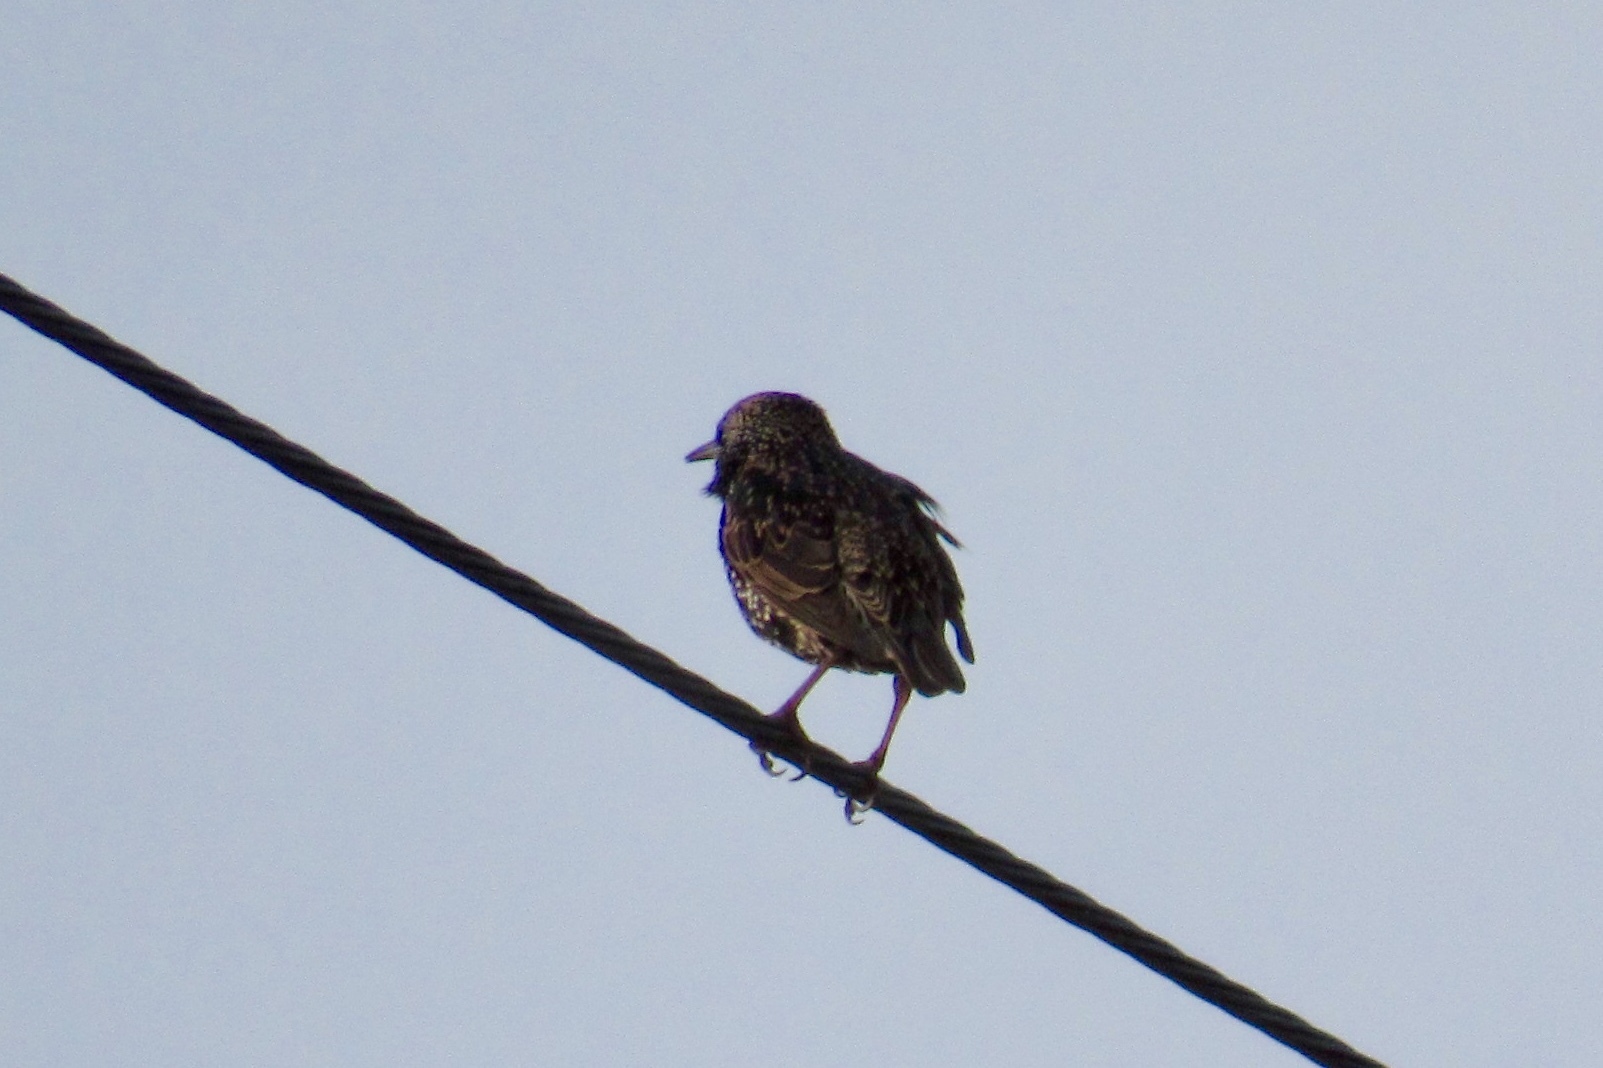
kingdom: Animalia
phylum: Chordata
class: Aves
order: Passeriformes
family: Sturnidae
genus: Sturnus
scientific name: Sturnus vulgaris
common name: Common starling
